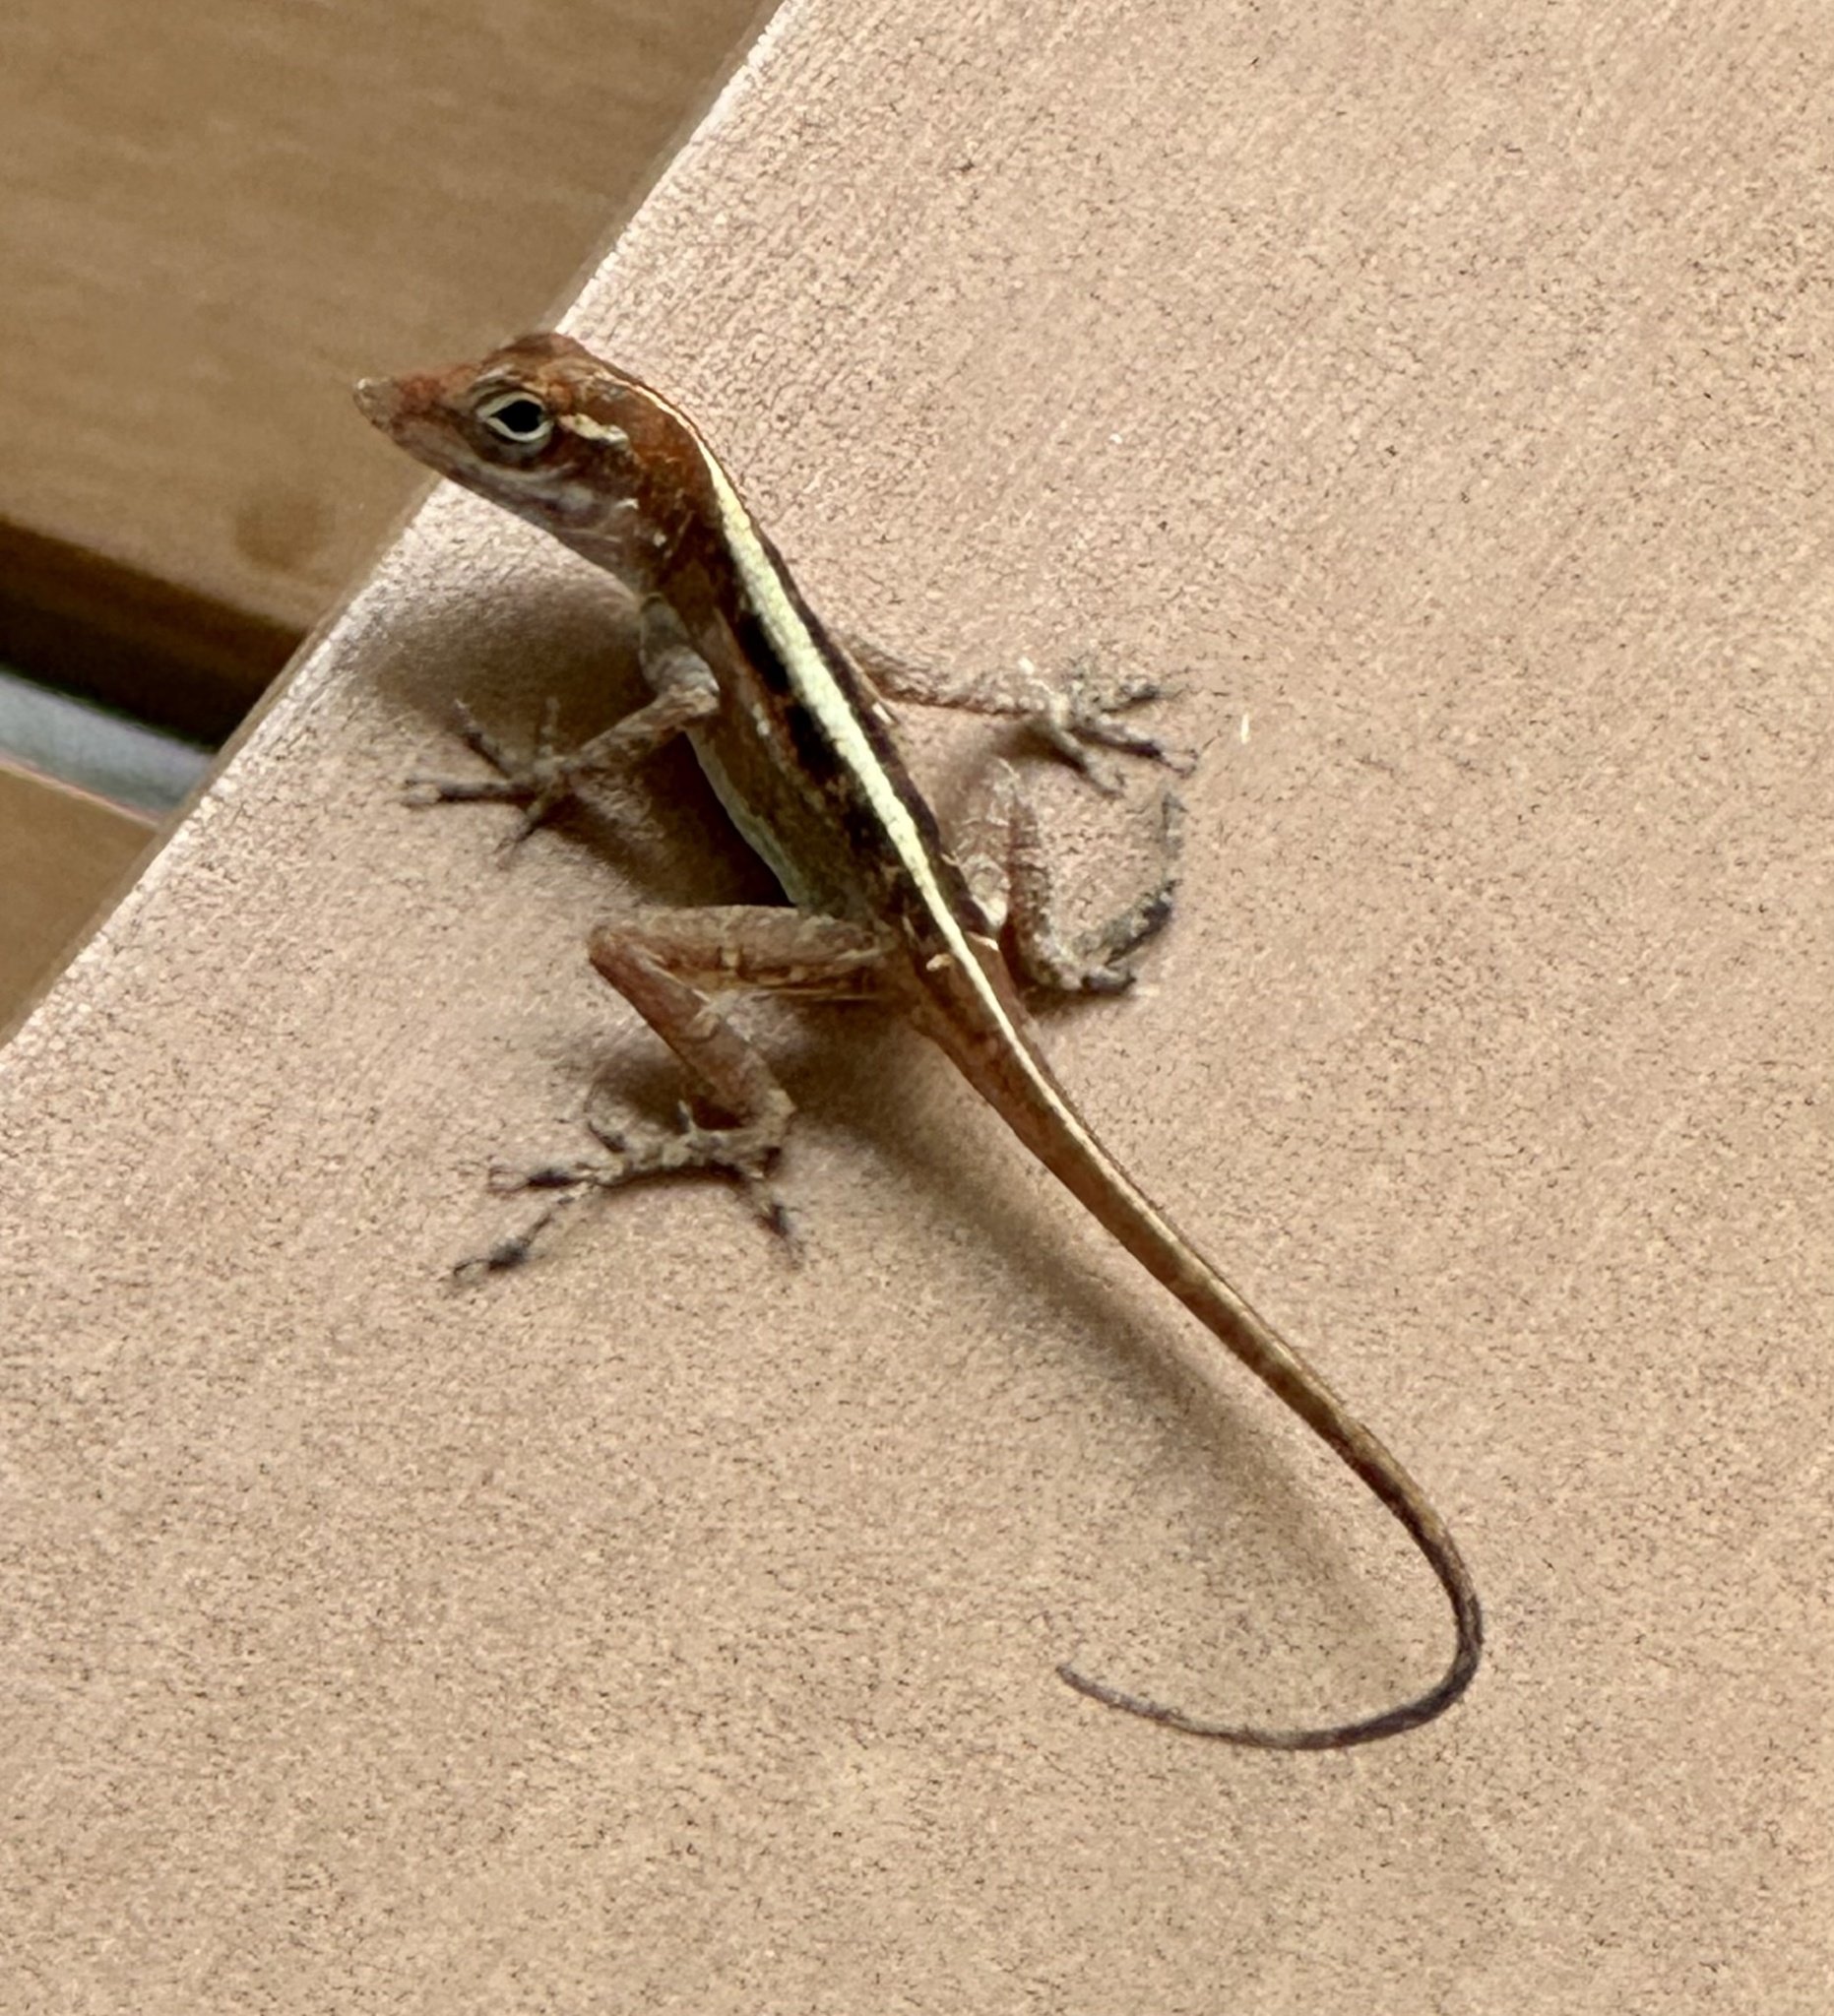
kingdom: Animalia
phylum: Chordata
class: Squamata
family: Dactyloidae
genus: Anolis
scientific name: Anolis sagrei
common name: Brown anole
